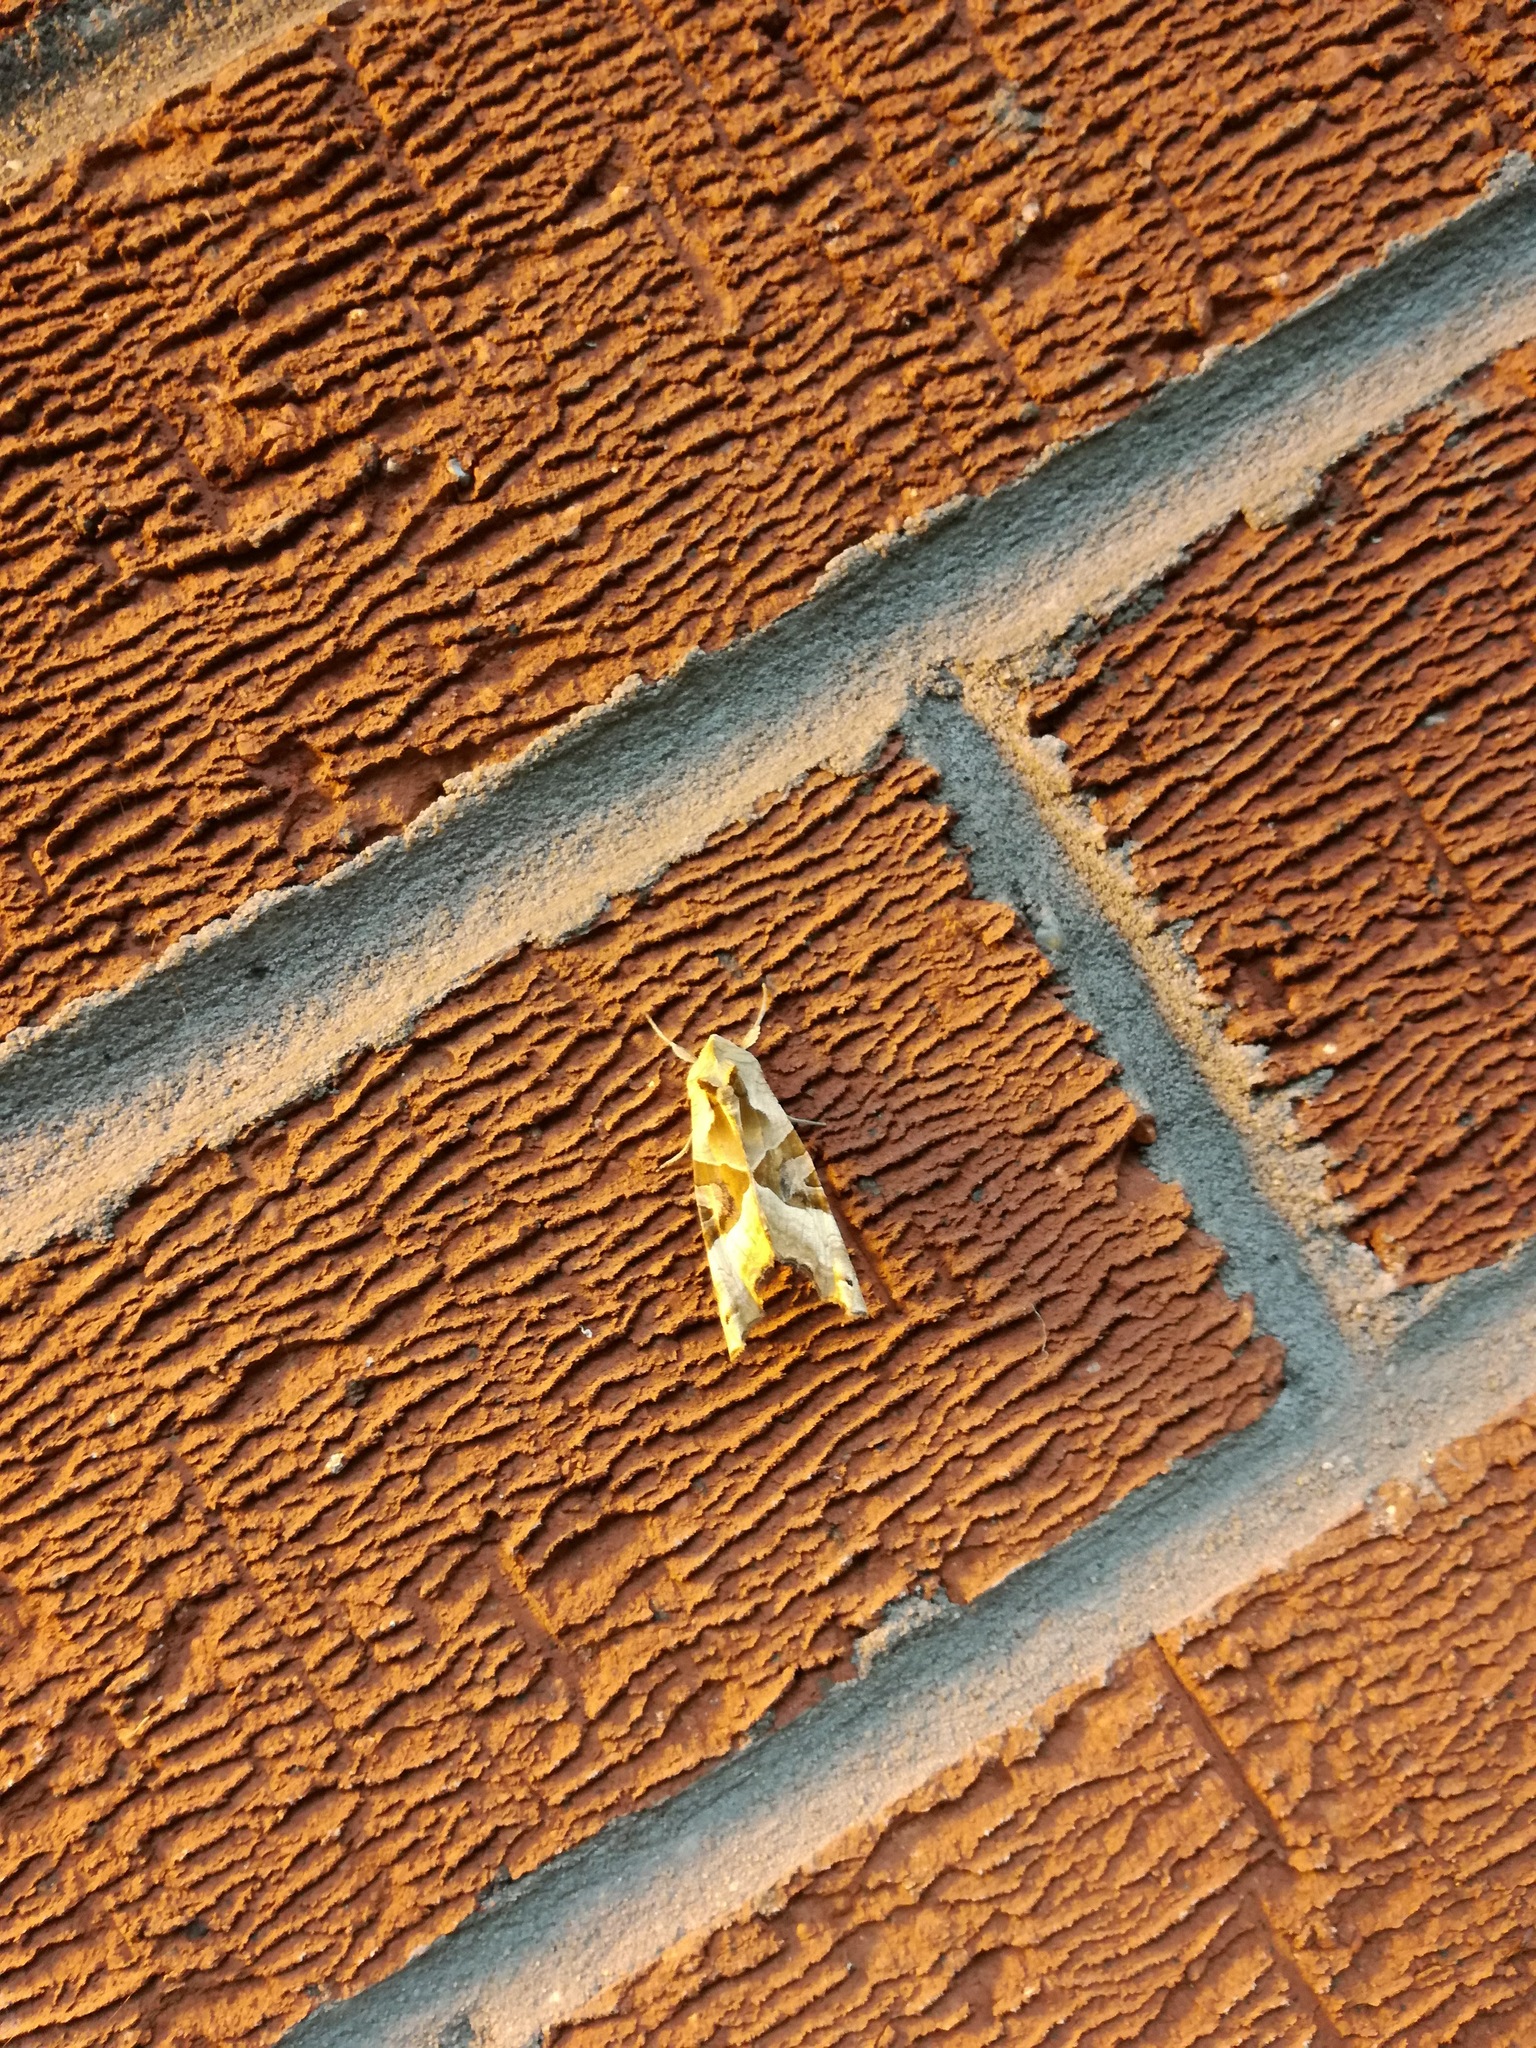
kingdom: Animalia
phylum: Arthropoda
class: Insecta
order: Lepidoptera
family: Noctuidae
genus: Phlogophora
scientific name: Phlogophora meticulosa
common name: Angle shades
